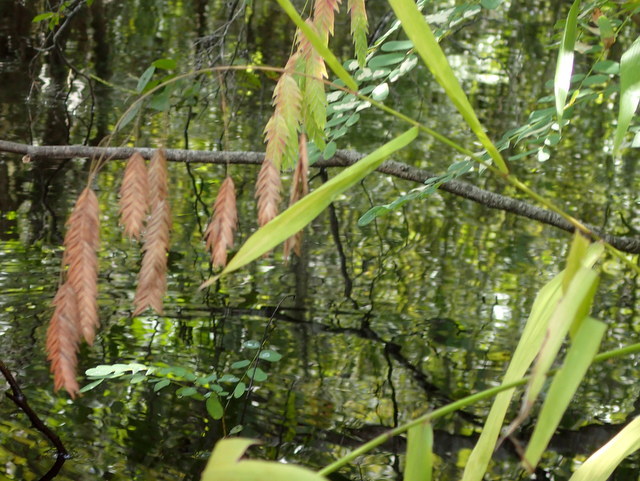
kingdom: Plantae
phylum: Tracheophyta
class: Liliopsida
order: Poales
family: Poaceae
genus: Chasmanthium
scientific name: Chasmanthium latifolium
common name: Broad-leaved chasmanthium
